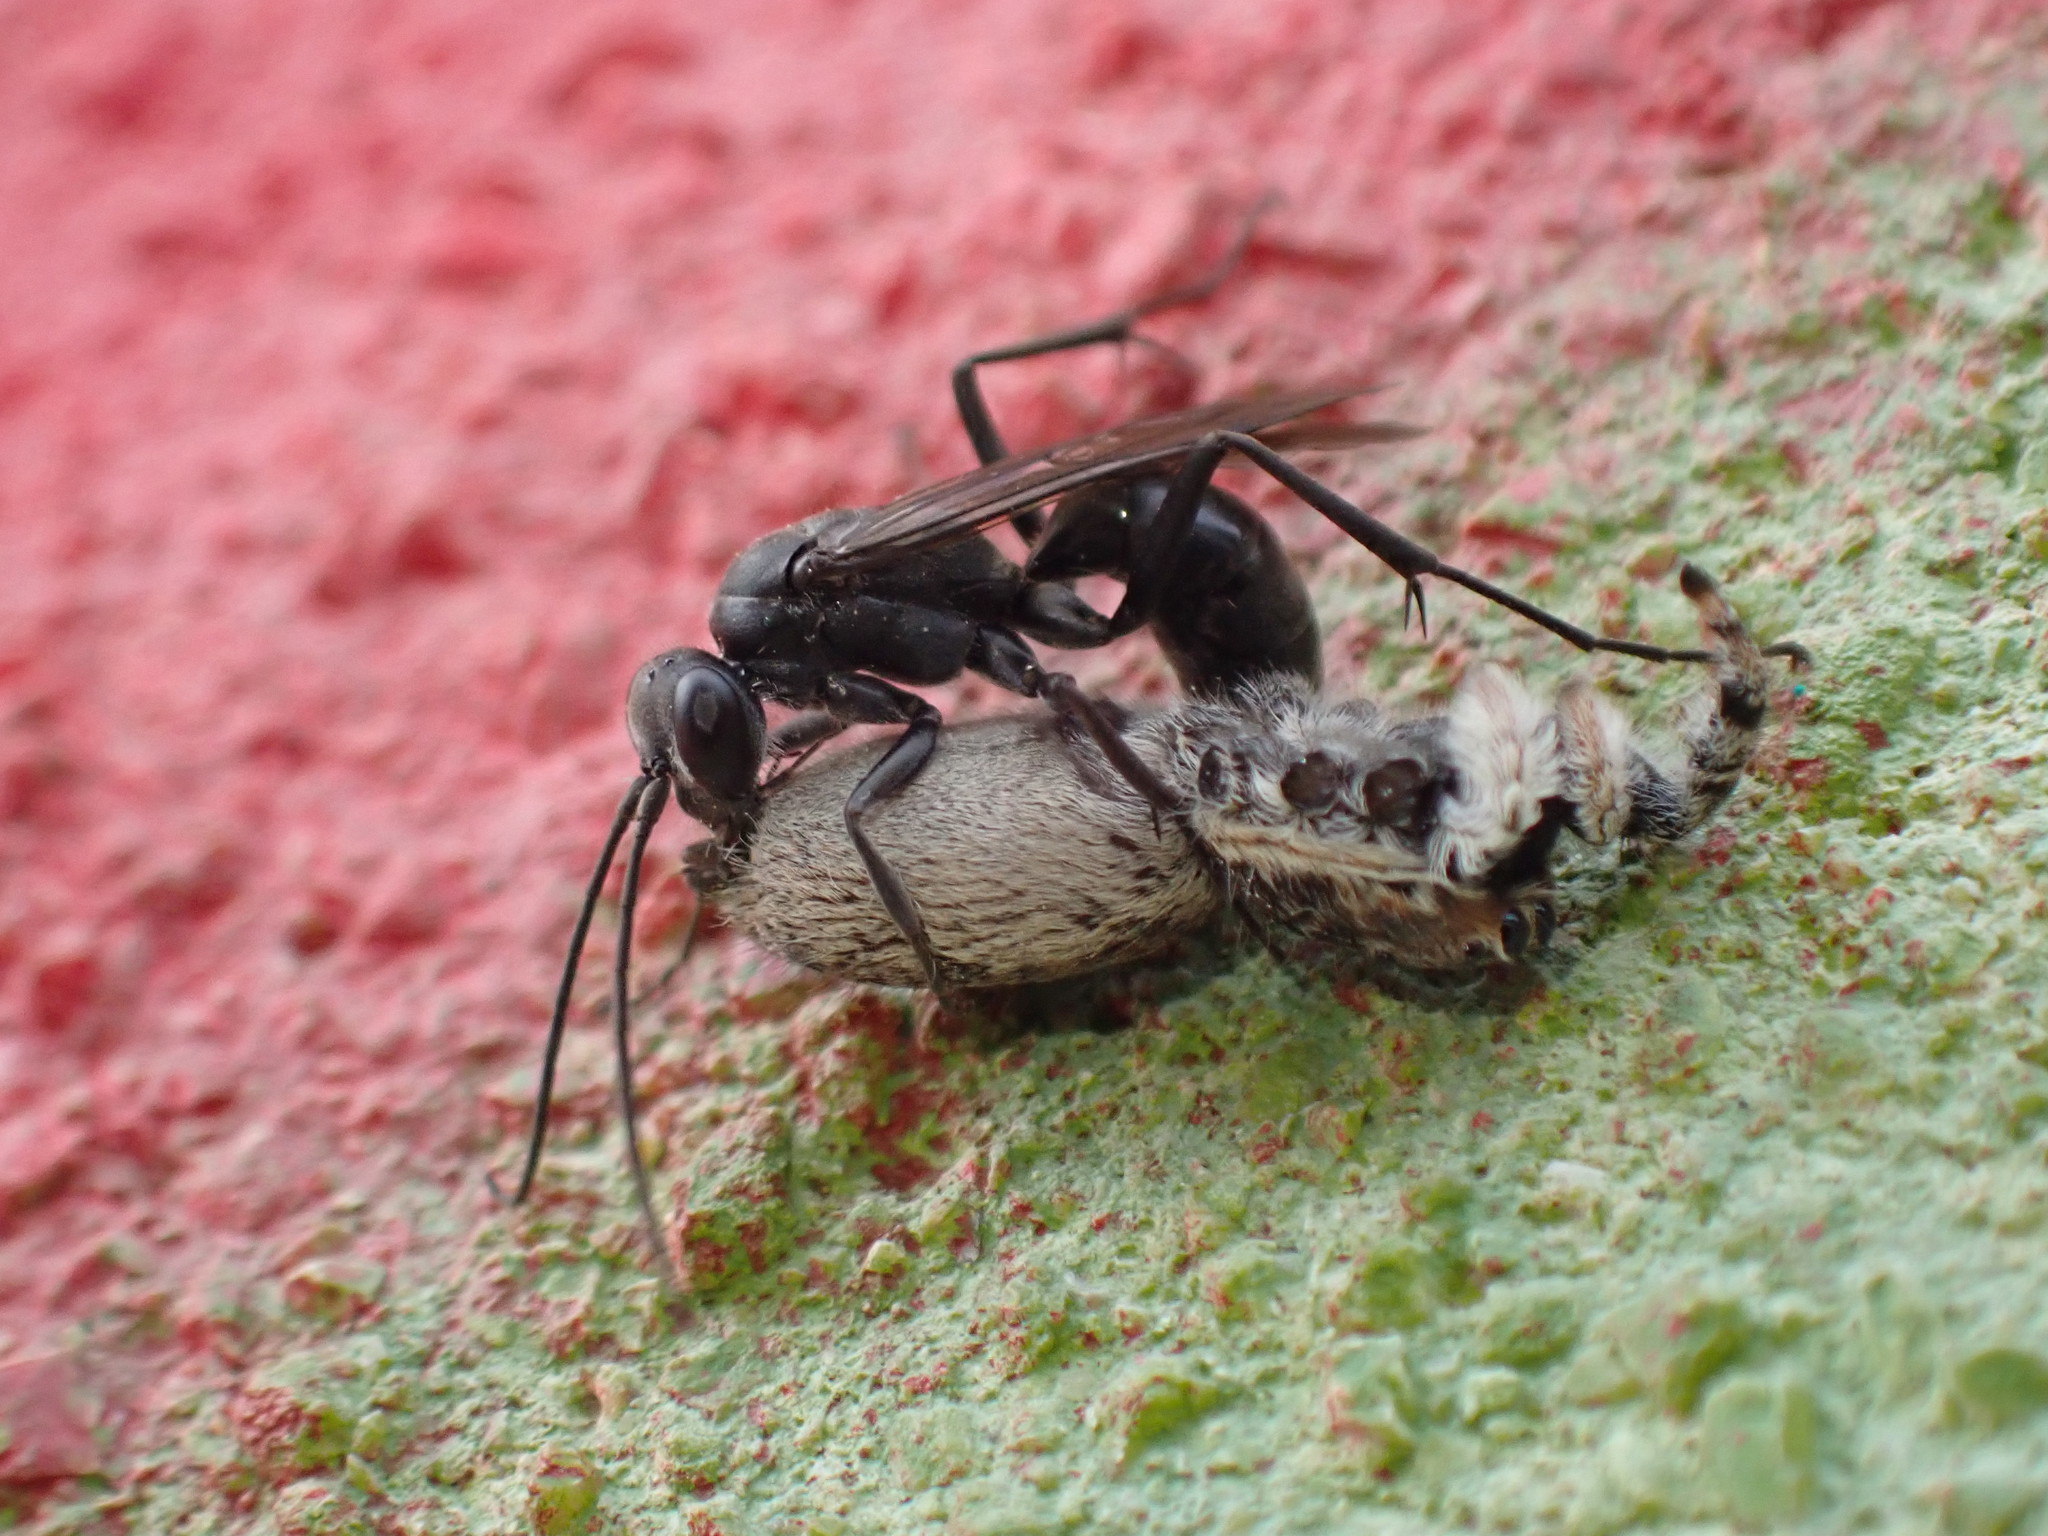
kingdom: Animalia
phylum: Arthropoda
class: Insecta
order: Hymenoptera
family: Pompilidae
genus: Auplopus
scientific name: Auplopus carbonarius
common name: Spider wasp
